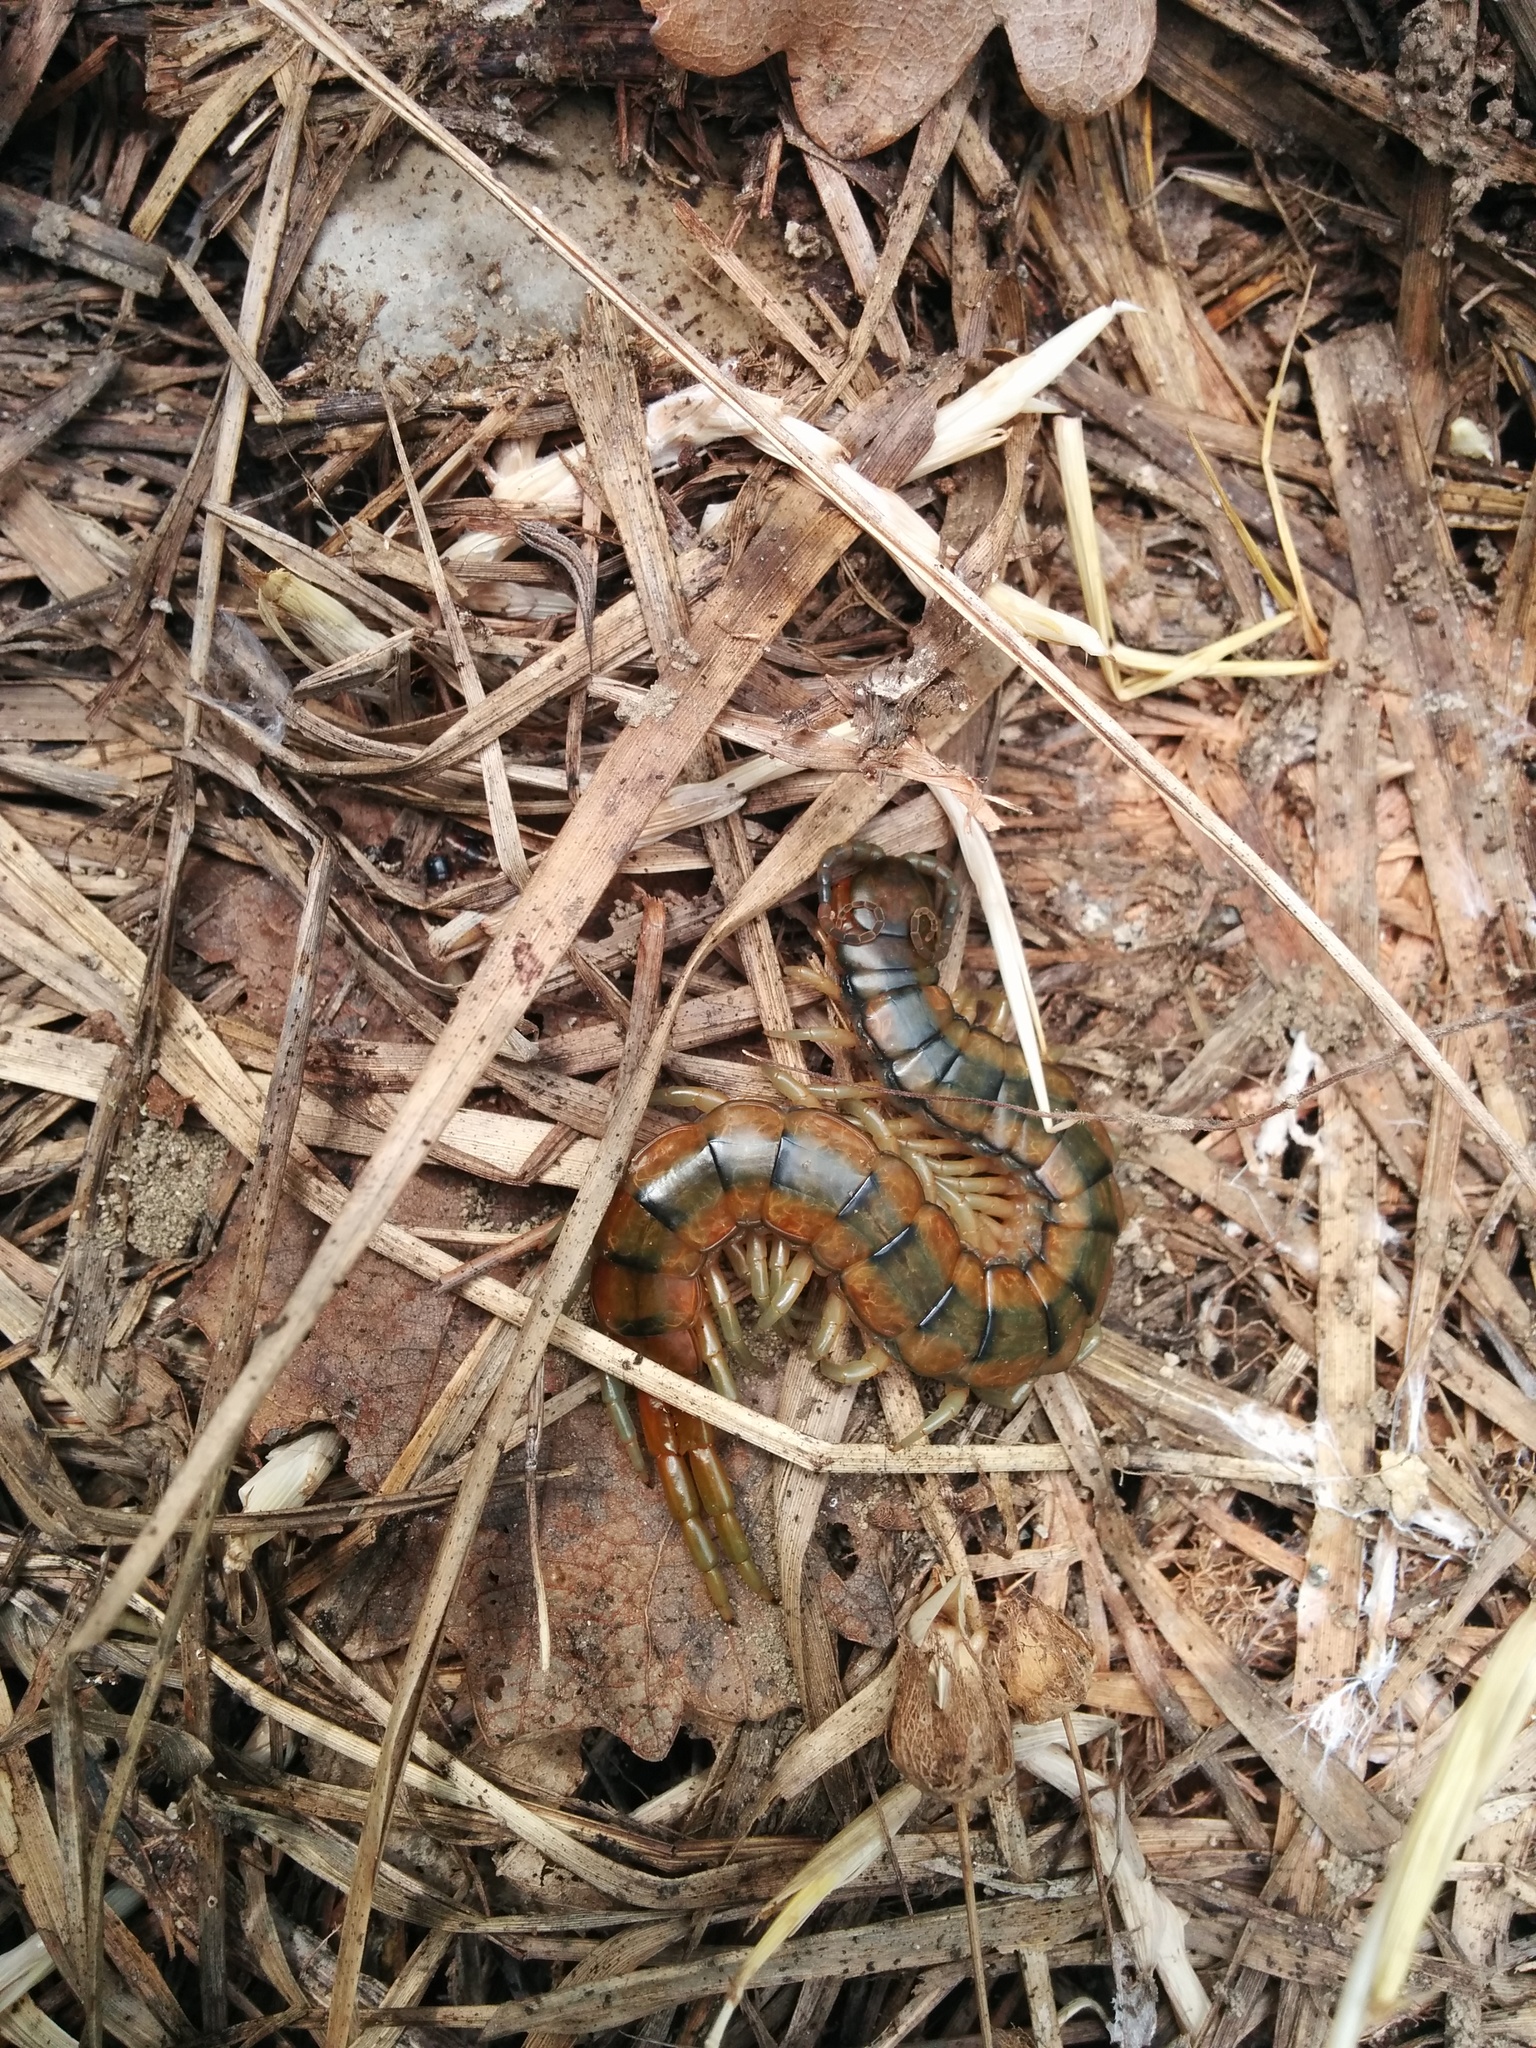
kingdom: Animalia
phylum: Arthropoda
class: Chilopoda
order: Scolopendromorpha
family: Scolopendridae
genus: Scolopendra
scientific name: Scolopendra cingulata
